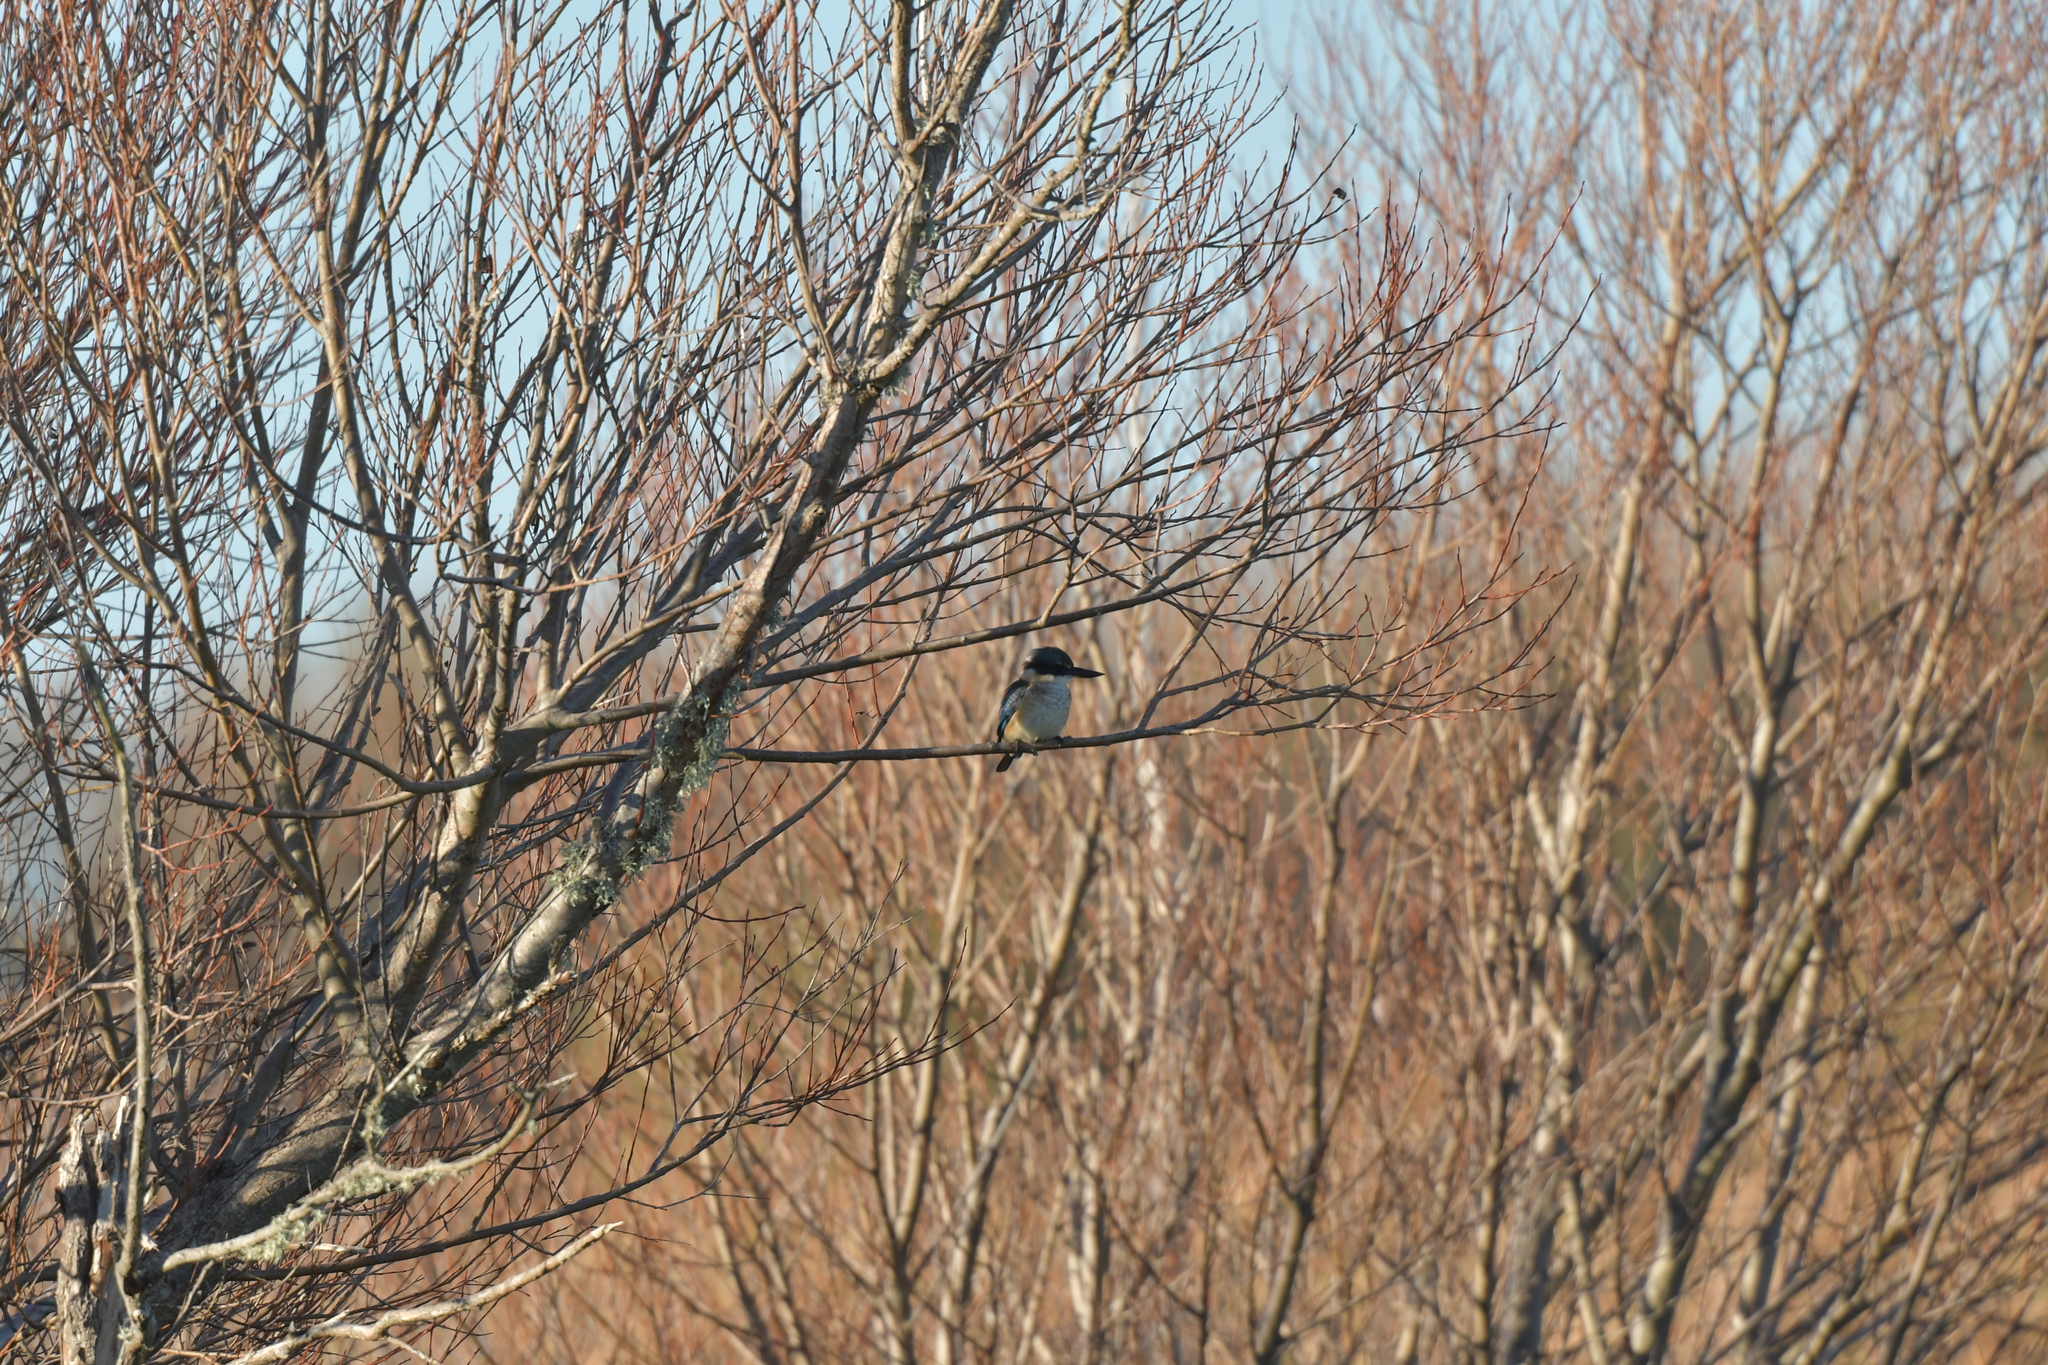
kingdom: Animalia
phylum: Chordata
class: Aves
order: Coraciiformes
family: Alcedinidae
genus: Todiramphus
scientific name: Todiramphus sanctus
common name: Sacred kingfisher
